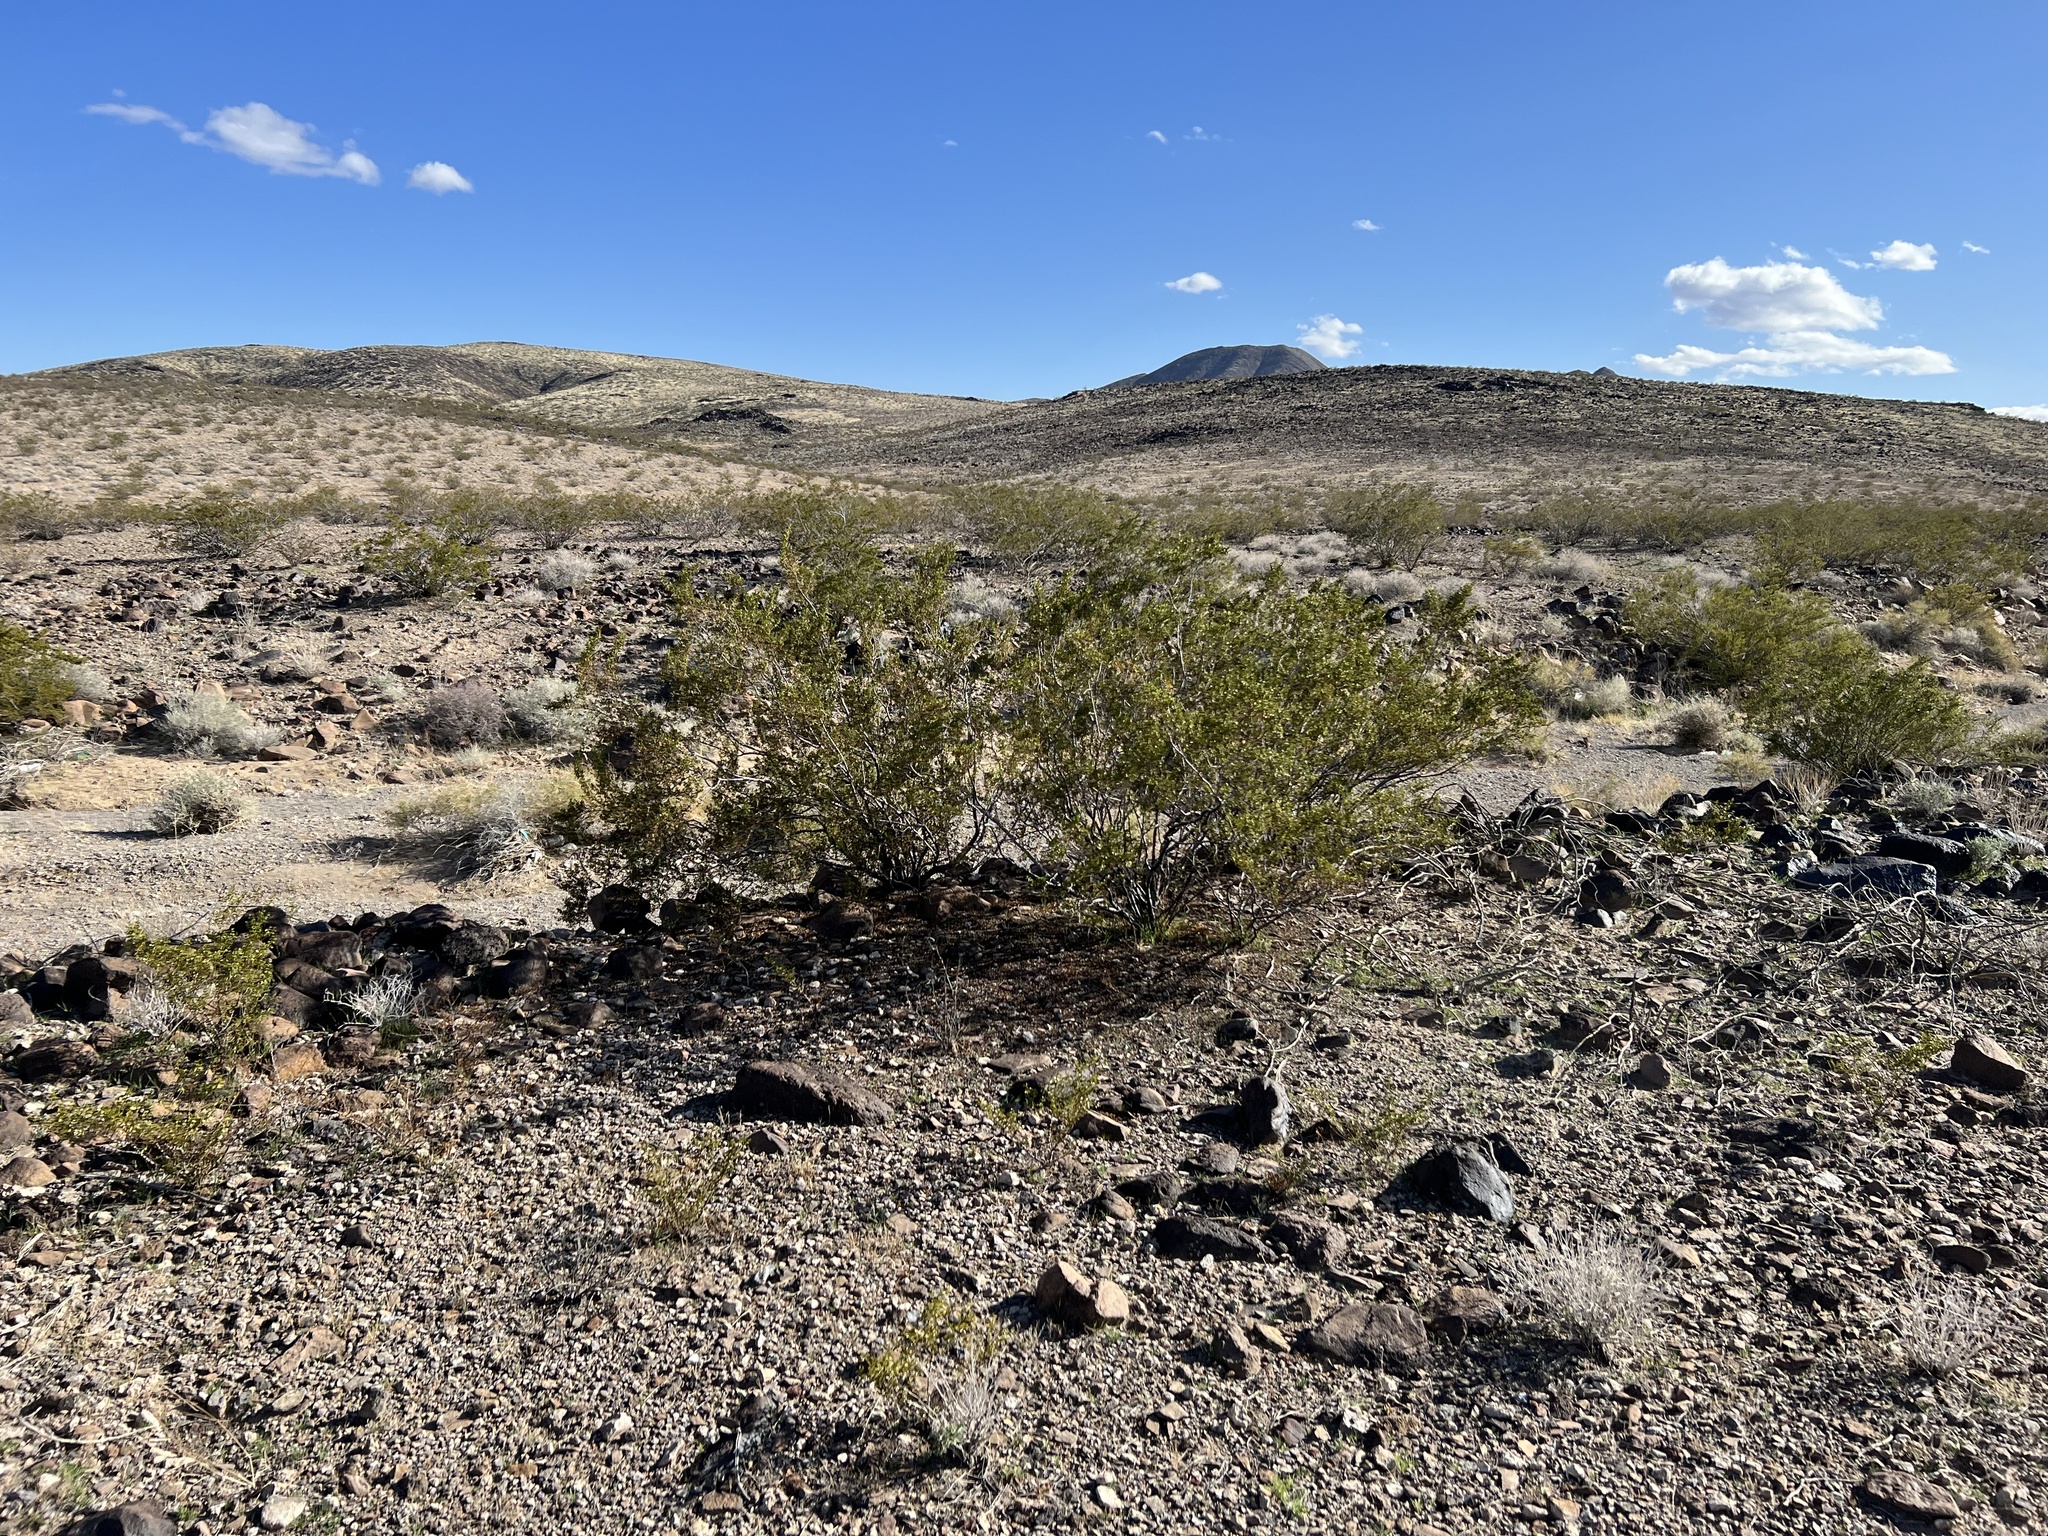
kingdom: Plantae
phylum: Tracheophyta
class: Magnoliopsida
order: Zygophyllales
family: Zygophyllaceae
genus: Larrea
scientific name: Larrea tridentata
